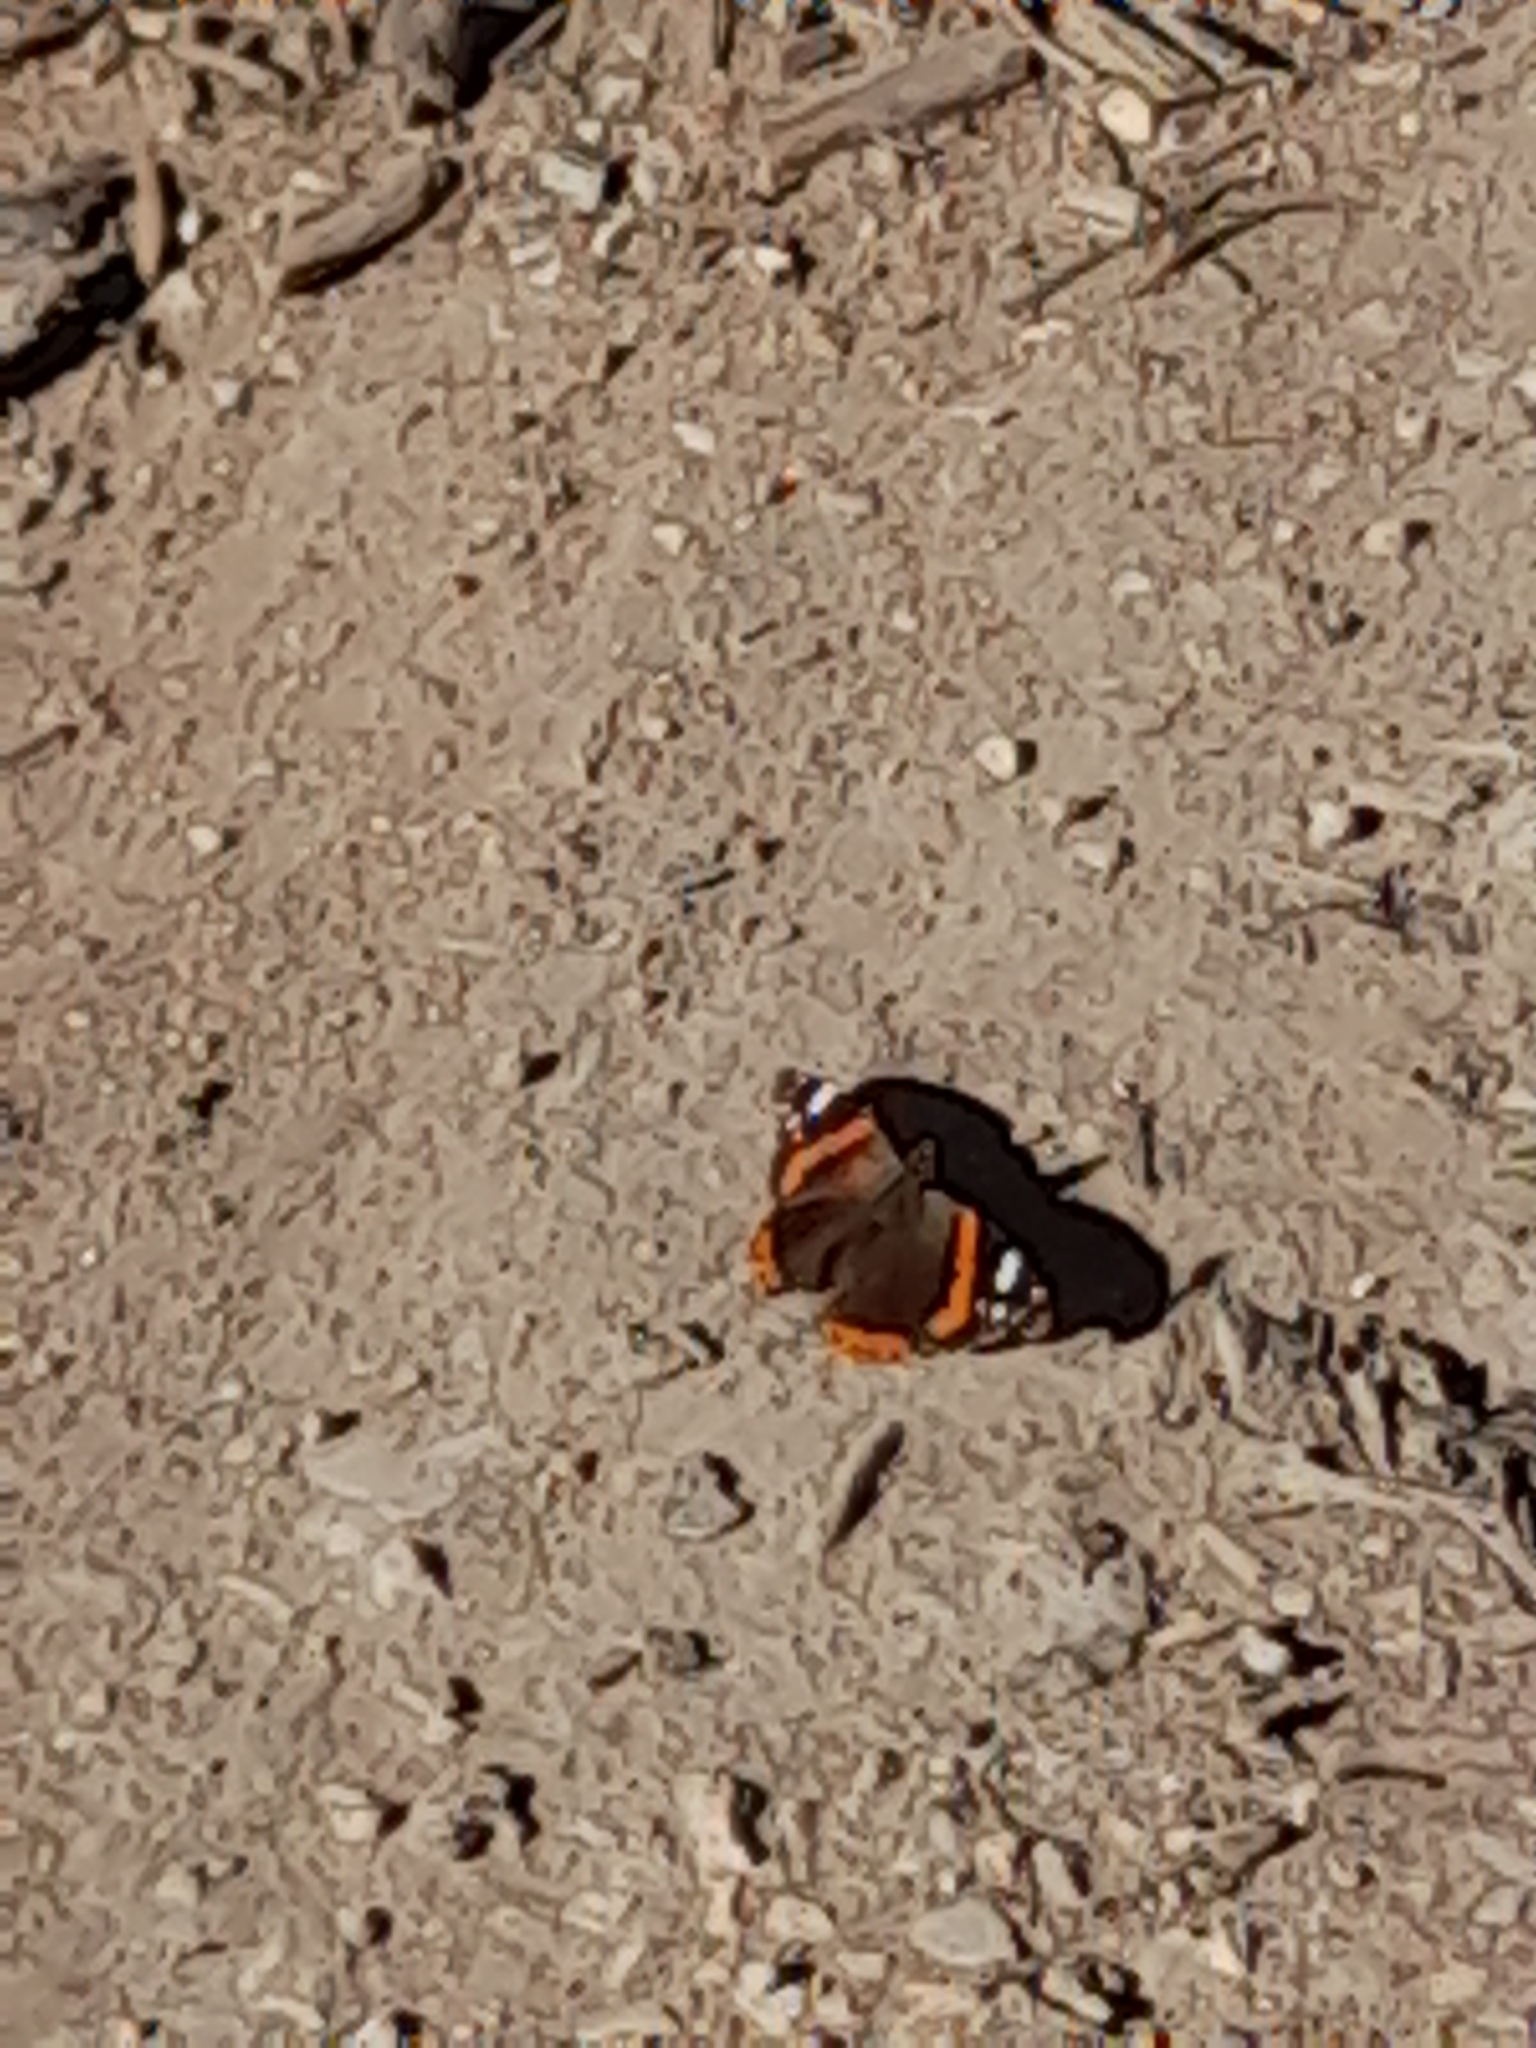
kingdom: Animalia
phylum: Arthropoda
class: Insecta
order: Lepidoptera
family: Nymphalidae
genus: Vanessa
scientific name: Vanessa atalanta
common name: Red admiral
